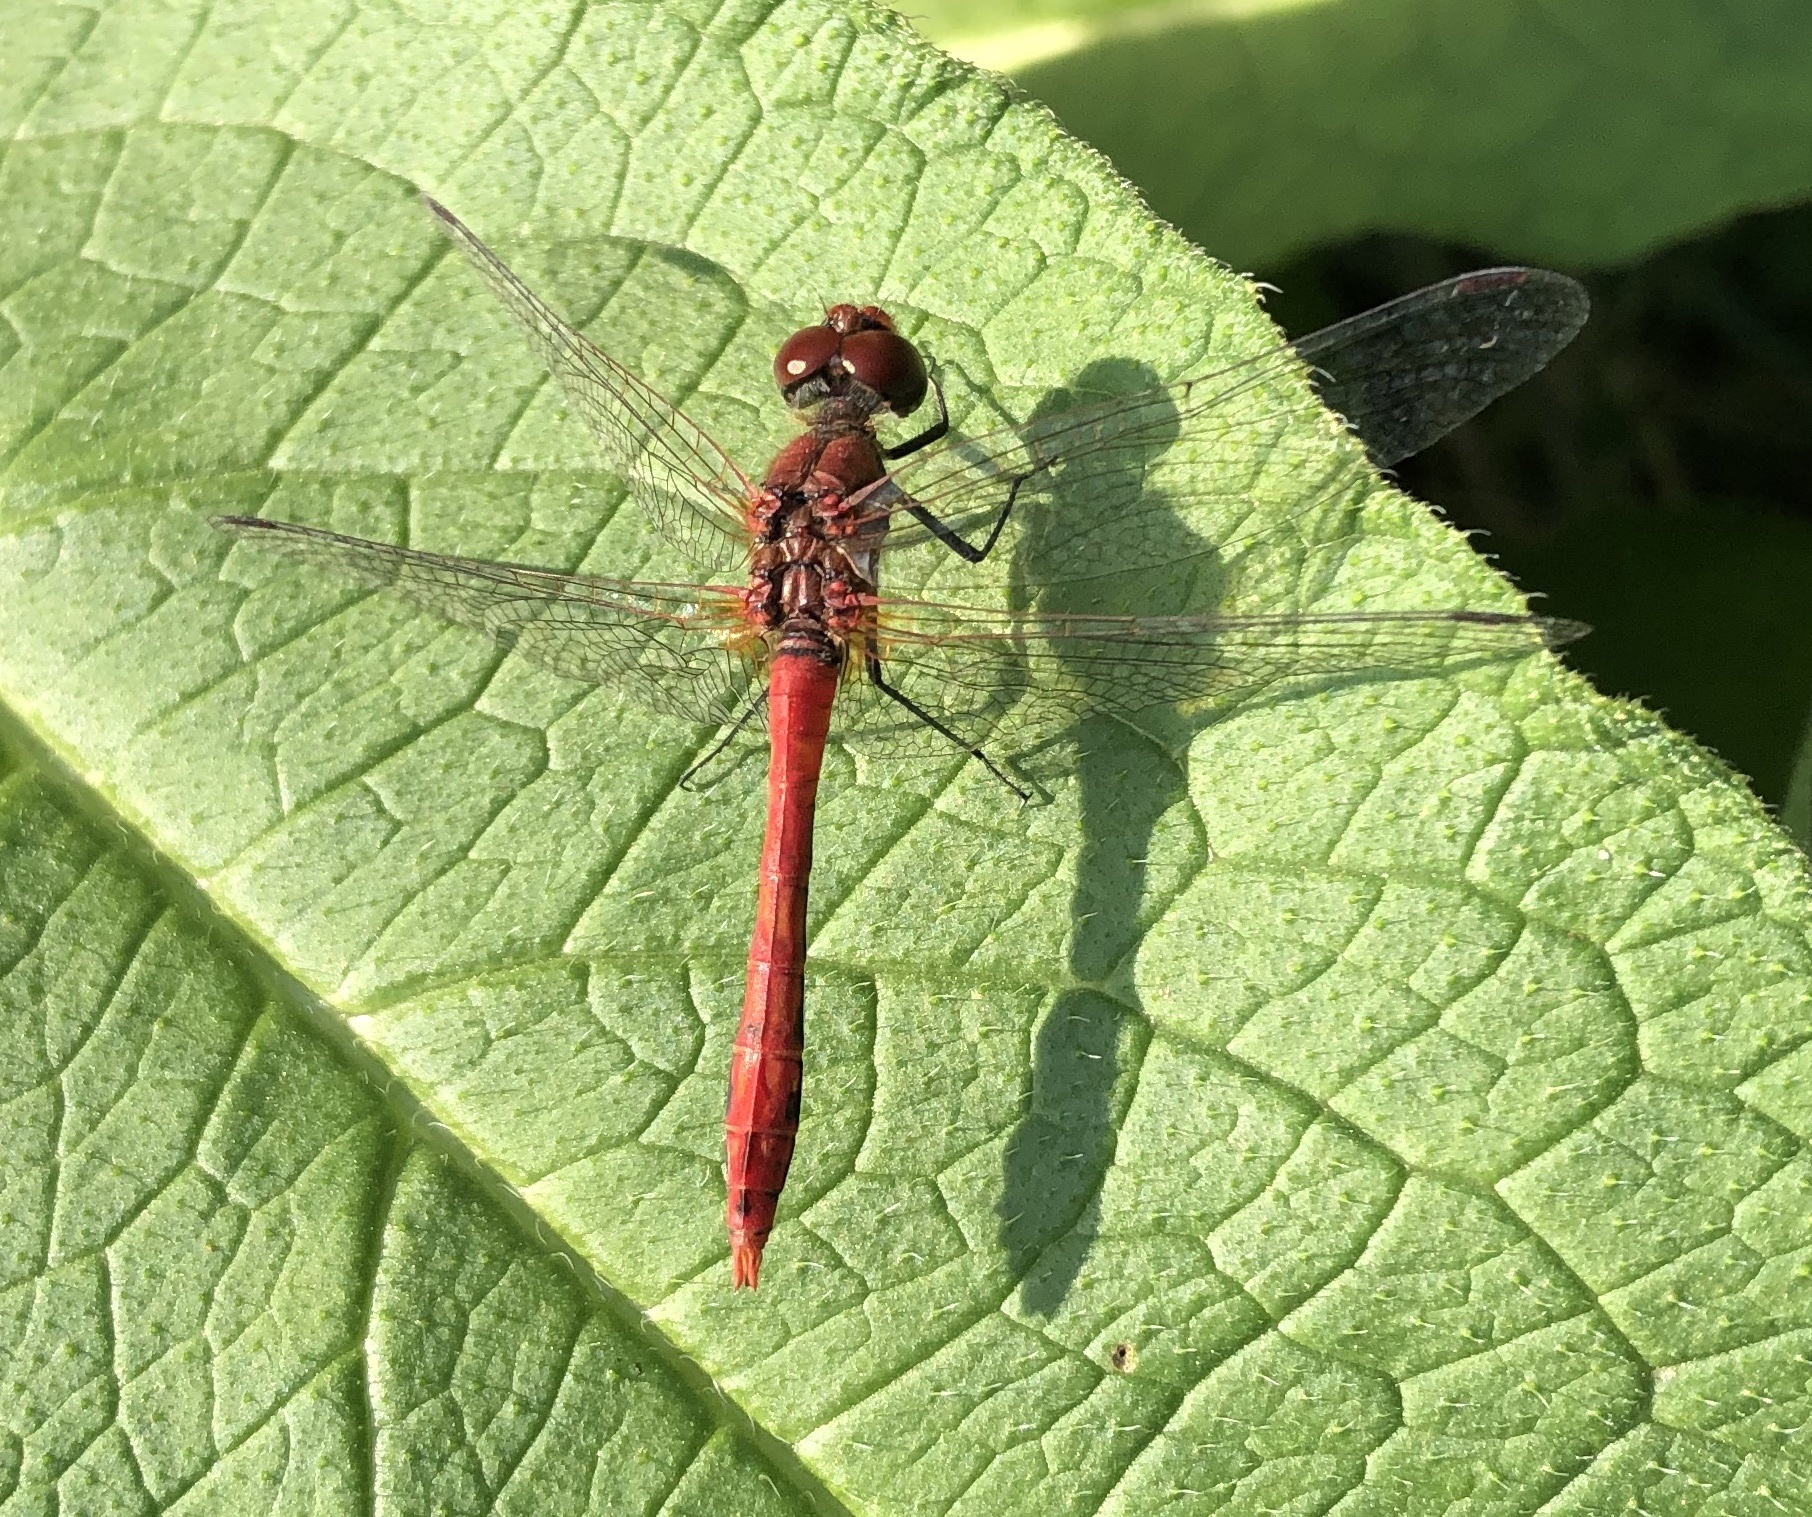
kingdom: Animalia
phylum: Arthropoda
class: Insecta
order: Odonata
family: Libellulidae
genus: Sympetrum
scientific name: Sympetrum sanguineum
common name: Ruddy darter
